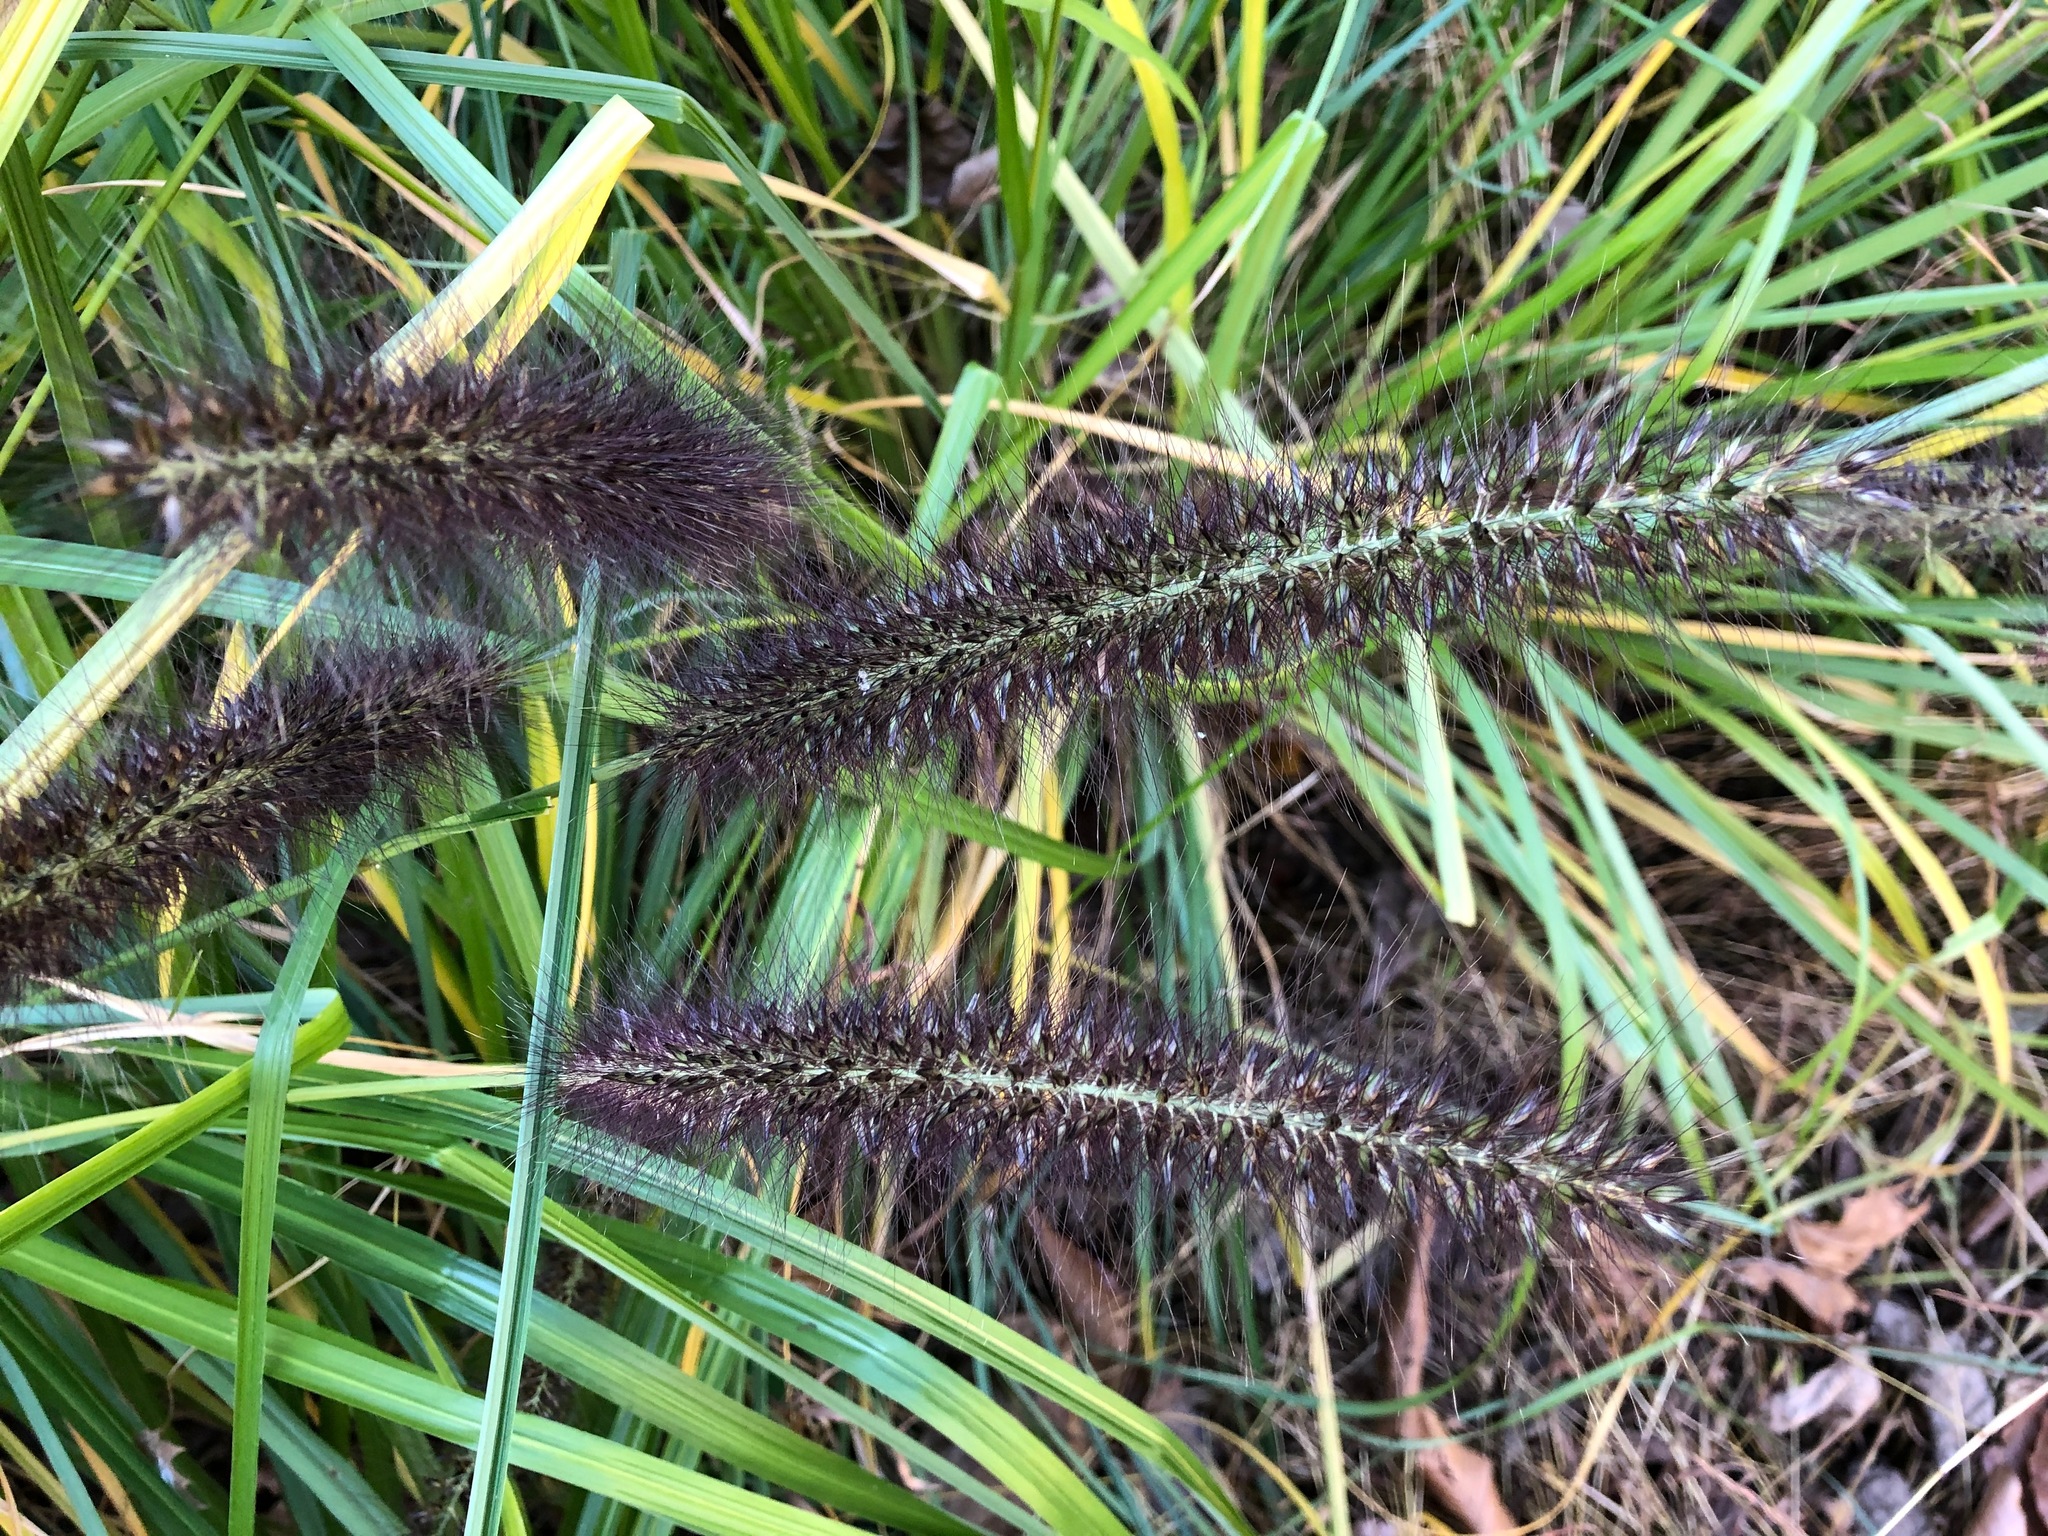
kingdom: Plantae
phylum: Tracheophyta
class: Liliopsida
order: Poales
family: Poaceae
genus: Cenchrus
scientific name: Cenchrus alopecuroides
